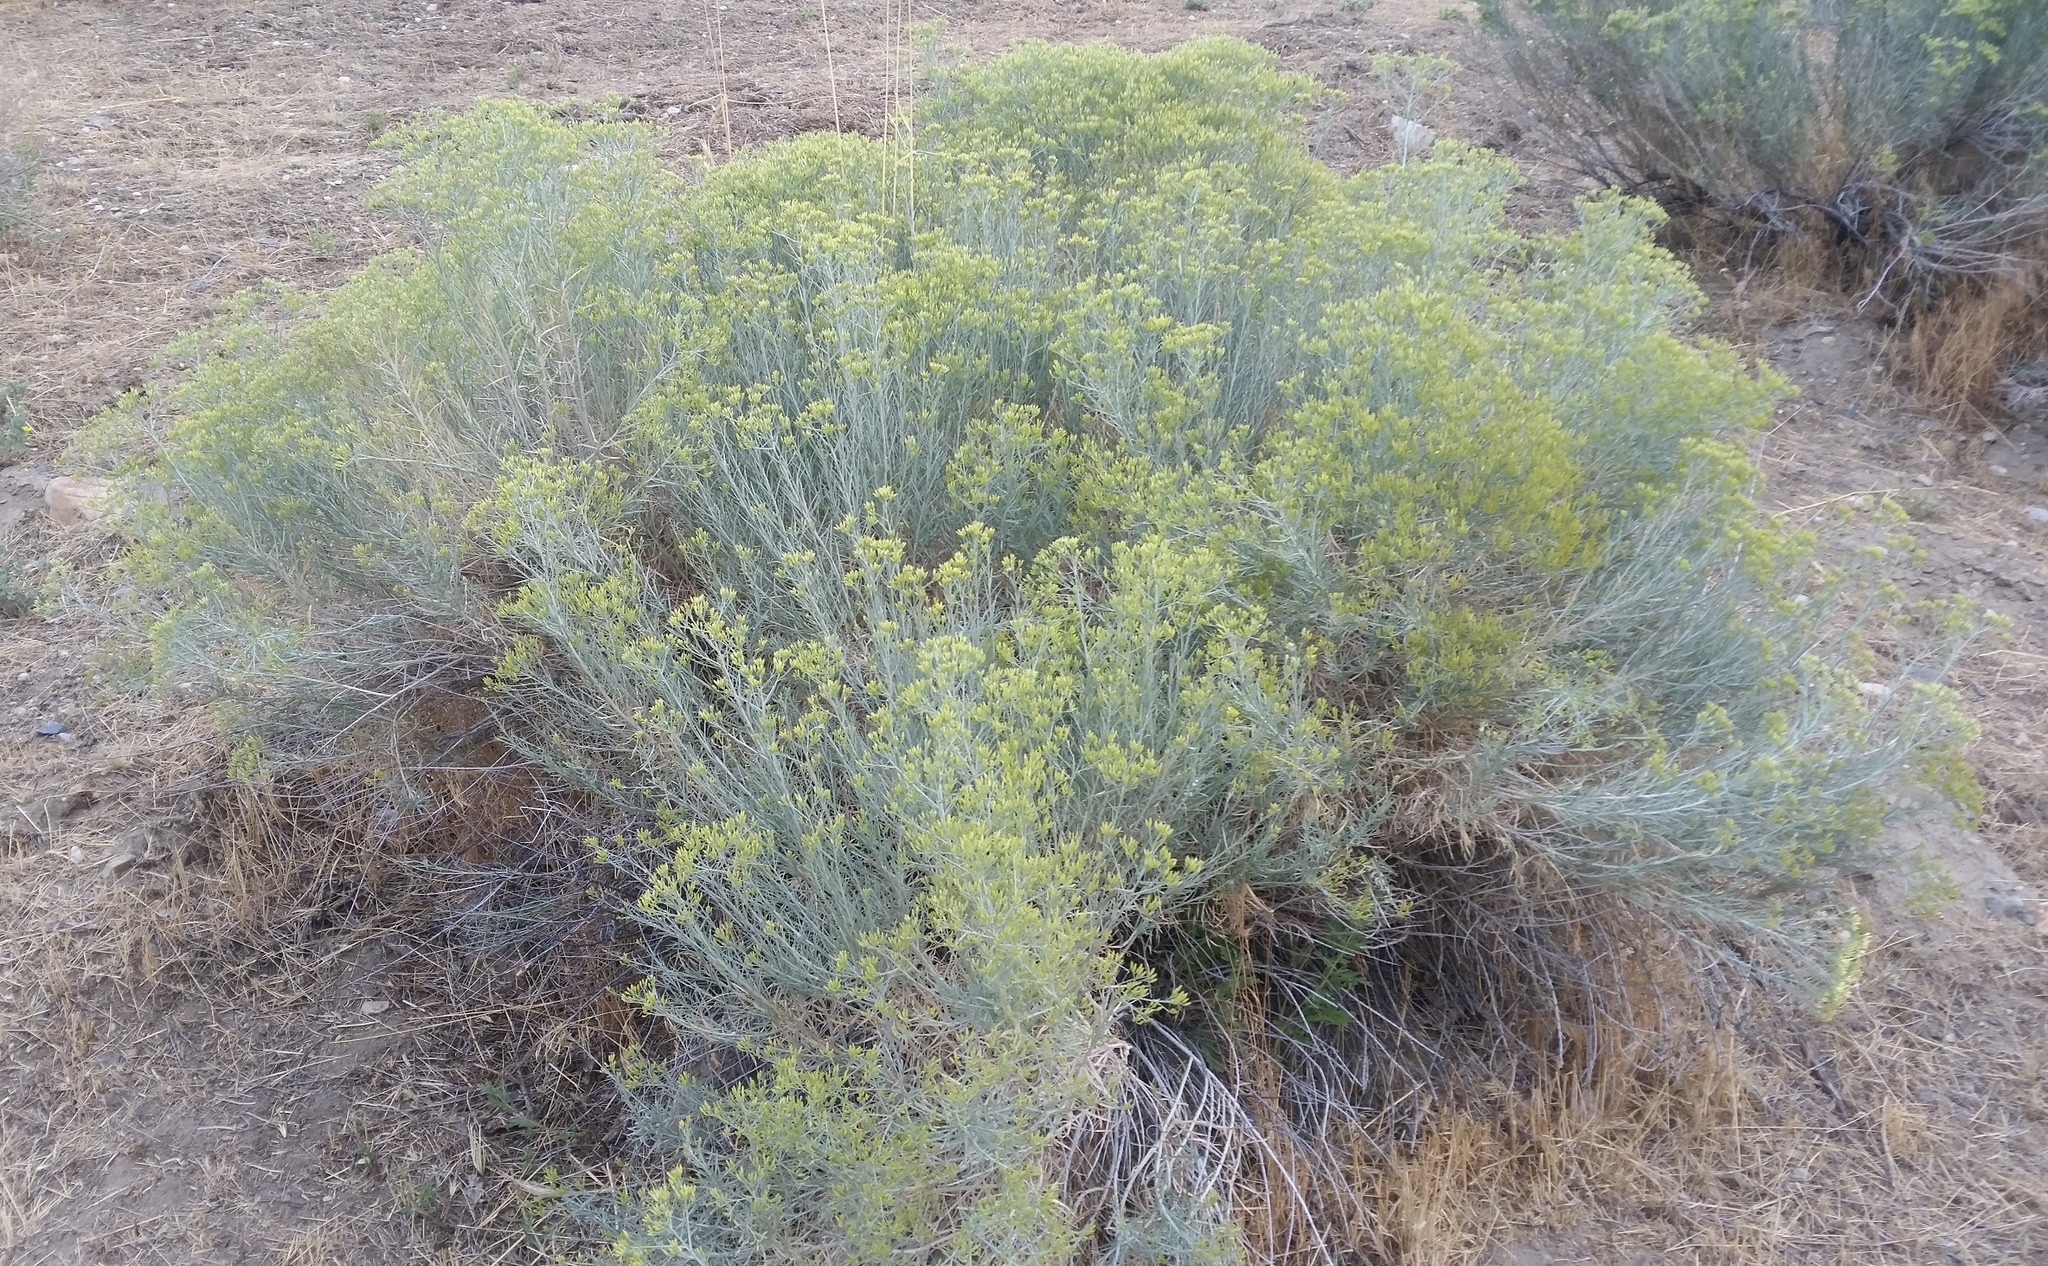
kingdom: Plantae
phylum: Tracheophyta
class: Magnoliopsida
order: Asterales
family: Asteraceae
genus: Ericameria
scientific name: Ericameria nauseosa
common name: Rubber rabbitbrush
